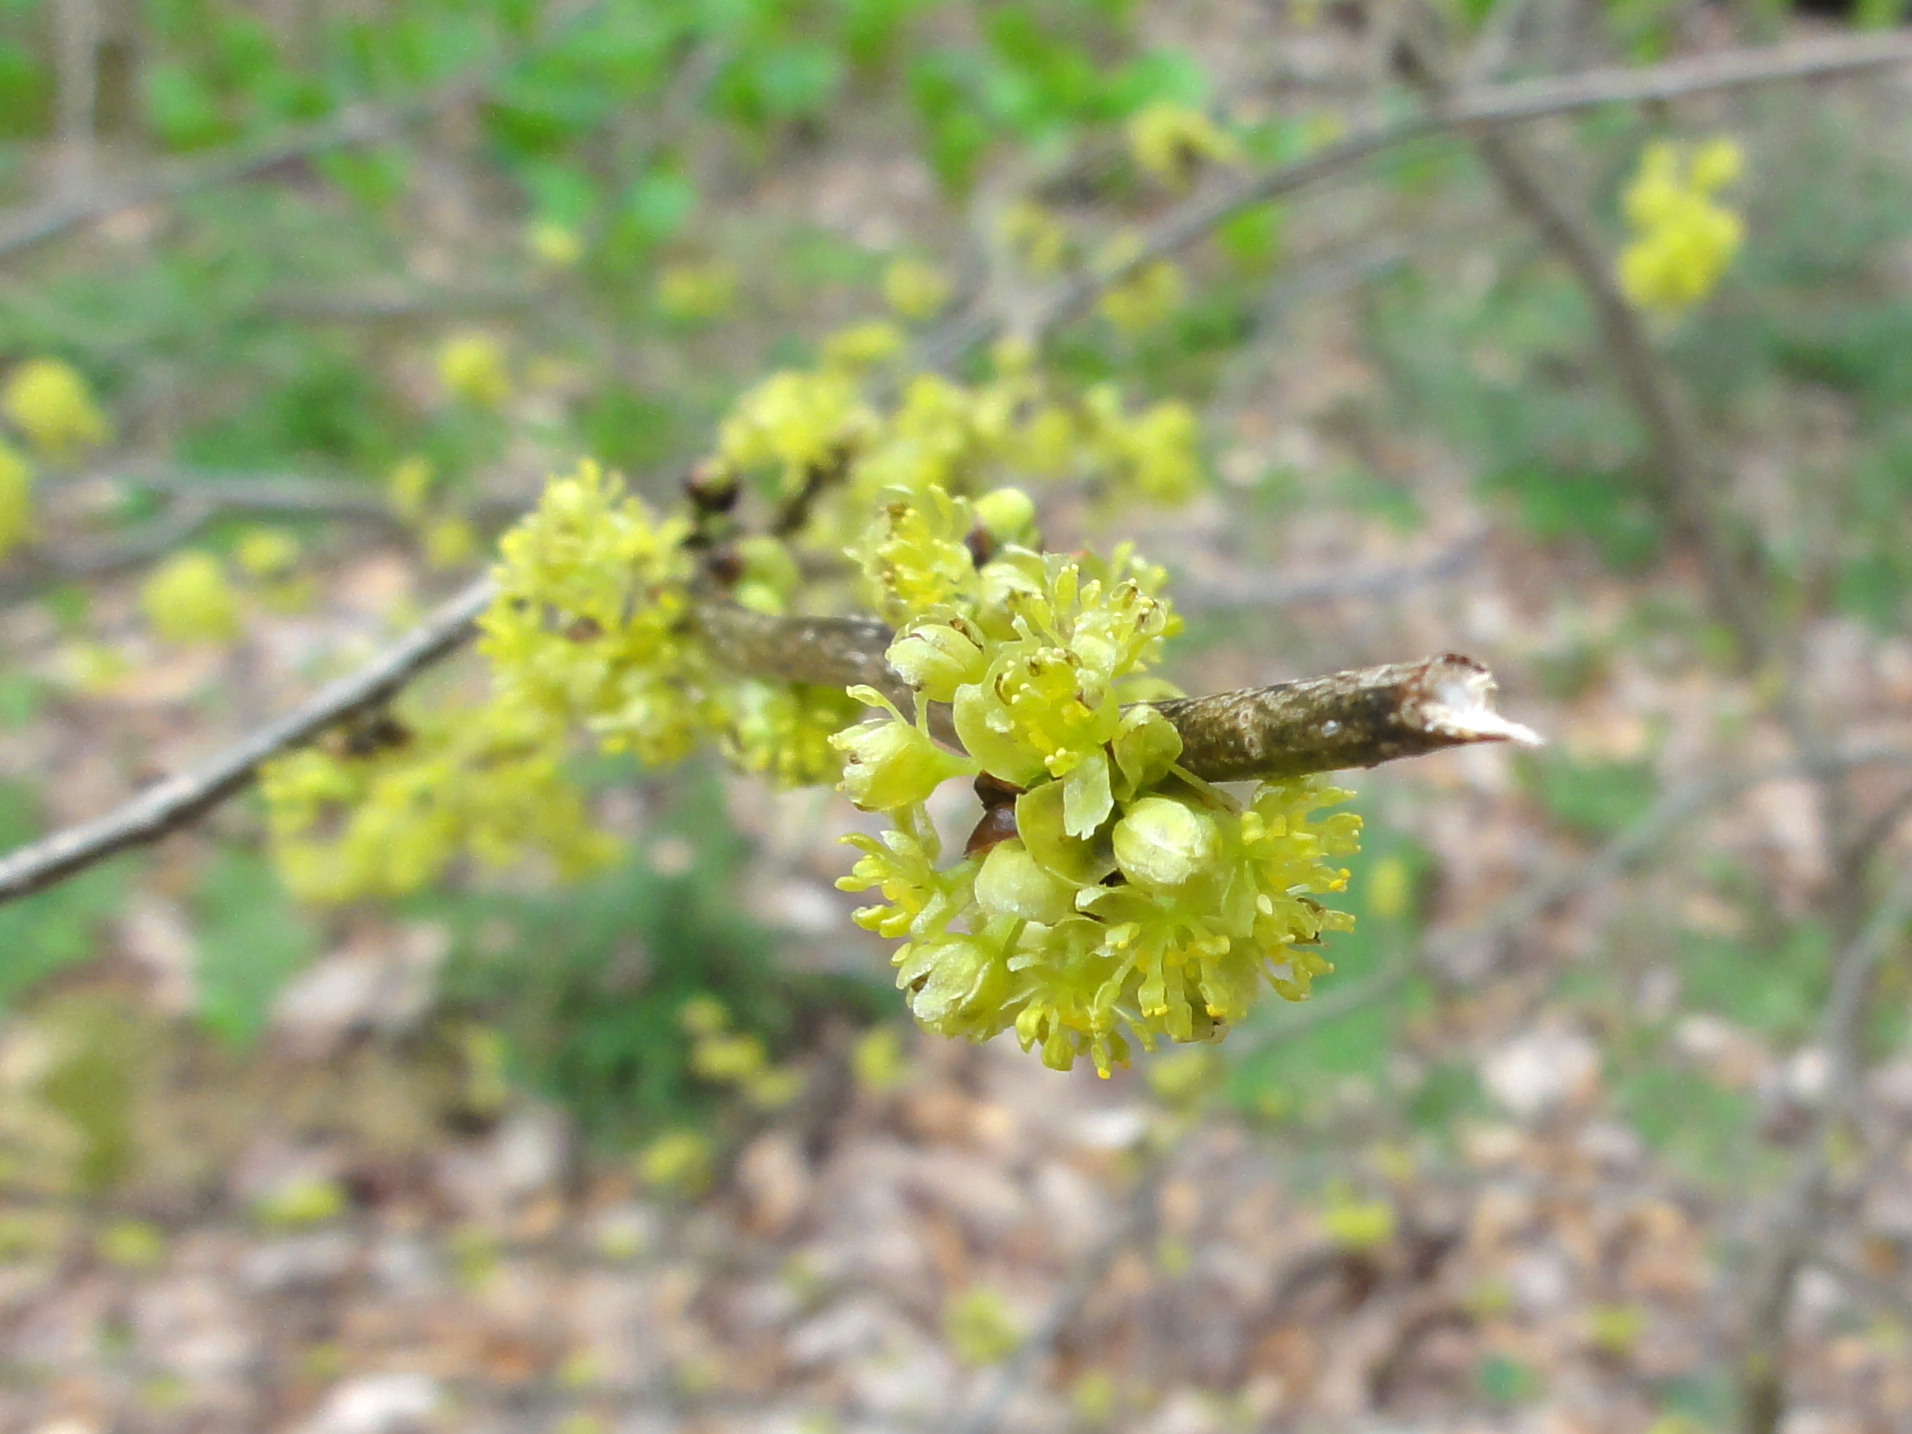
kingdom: Plantae
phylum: Tracheophyta
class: Magnoliopsida
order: Laurales
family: Lauraceae
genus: Lindera
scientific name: Lindera benzoin
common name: Spicebush
